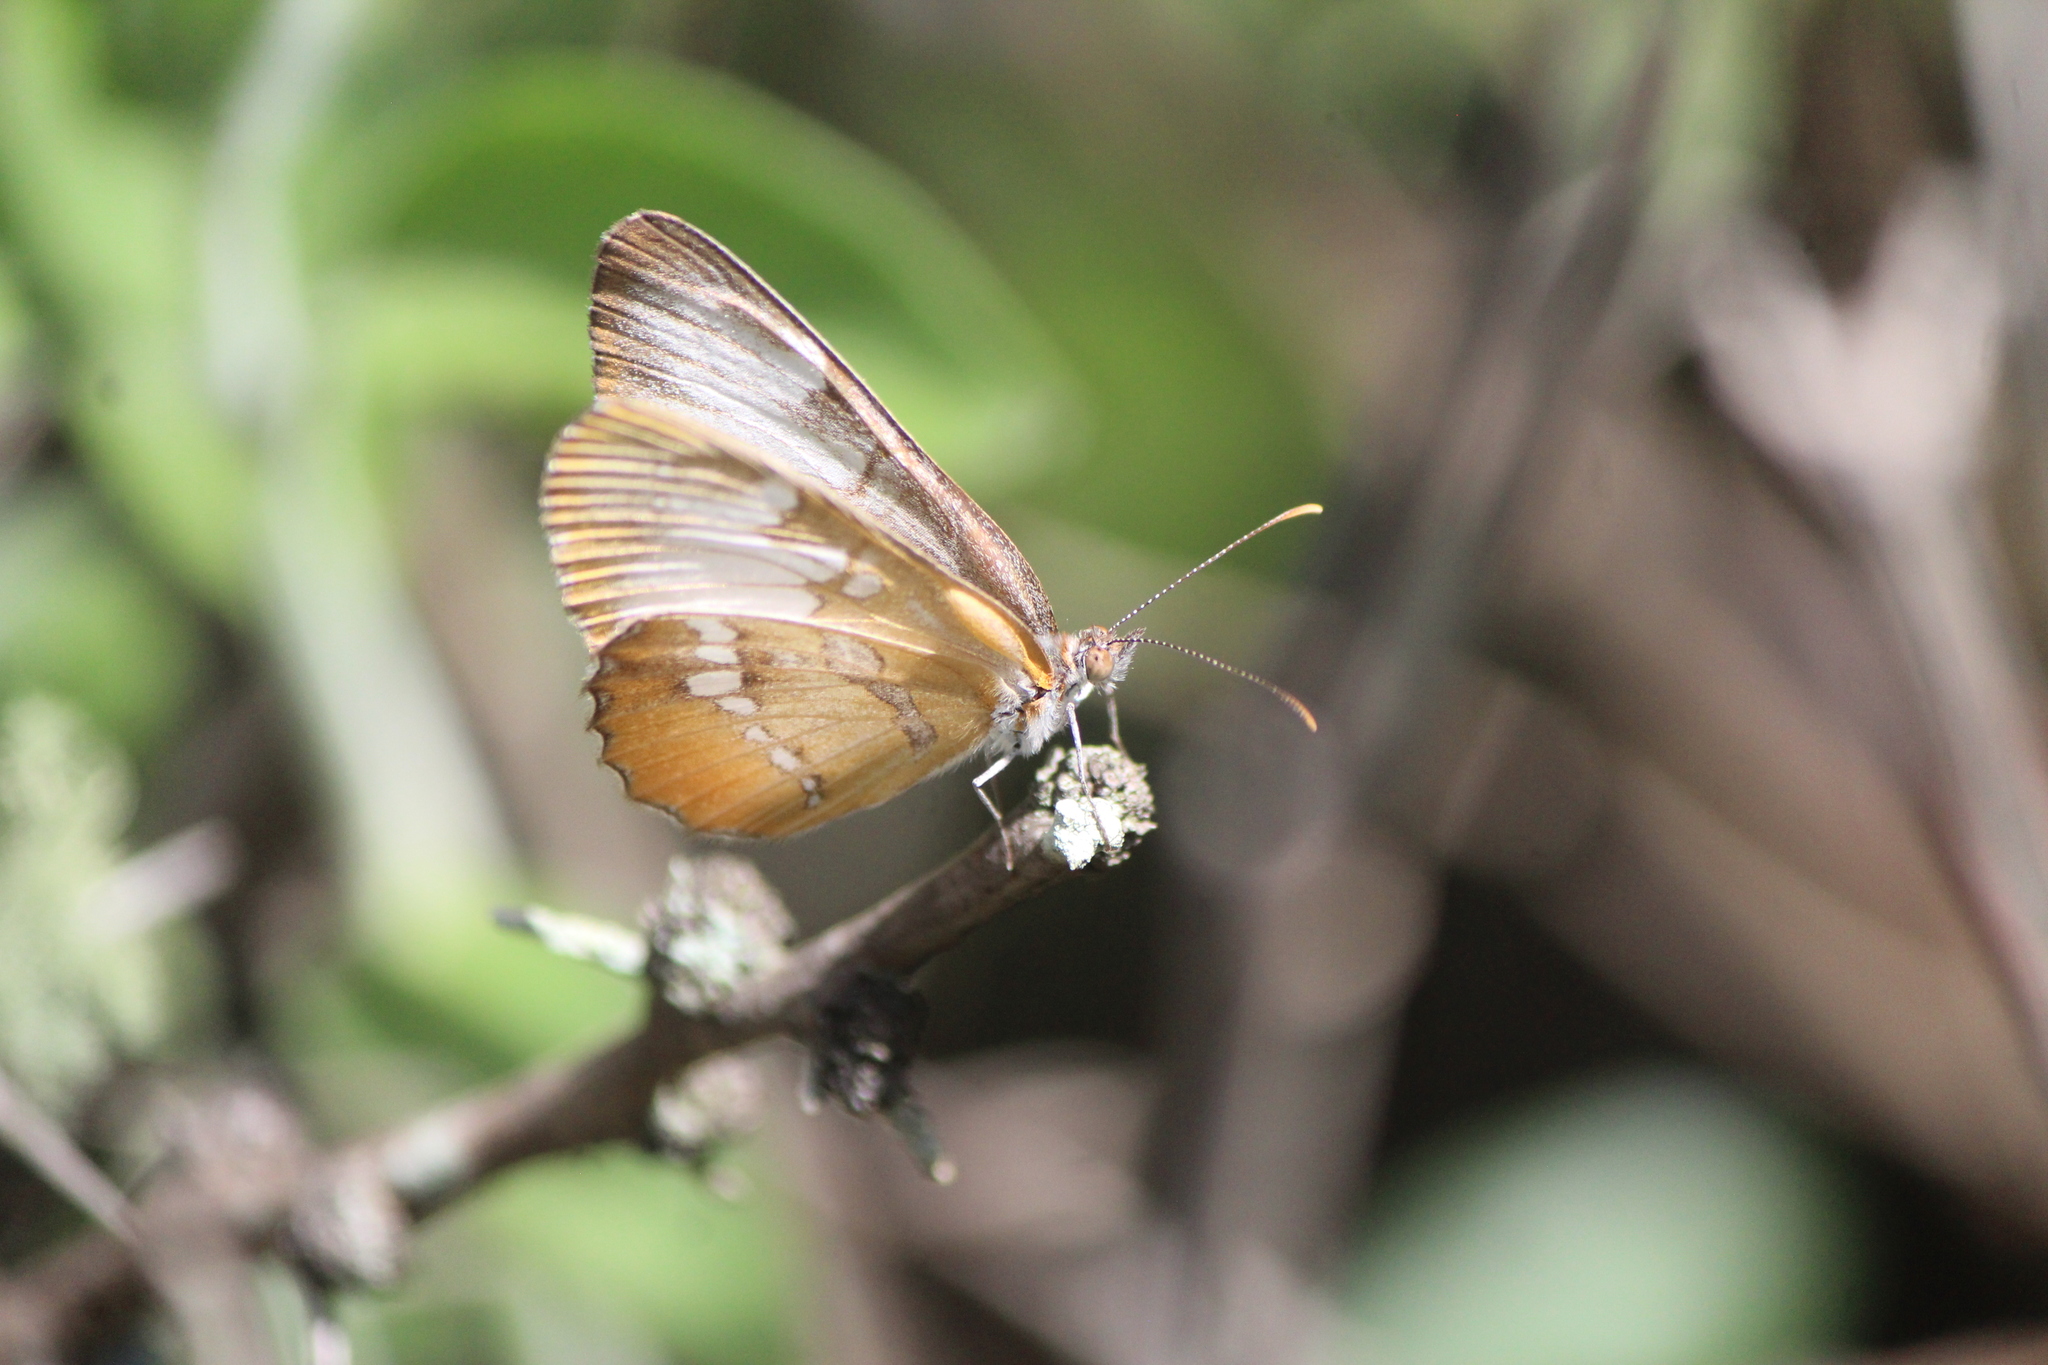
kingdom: Animalia
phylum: Arthropoda
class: Insecta
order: Lepidoptera
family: Nymphalidae
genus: Mestra
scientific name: Mestra amymone
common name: Common mestra
